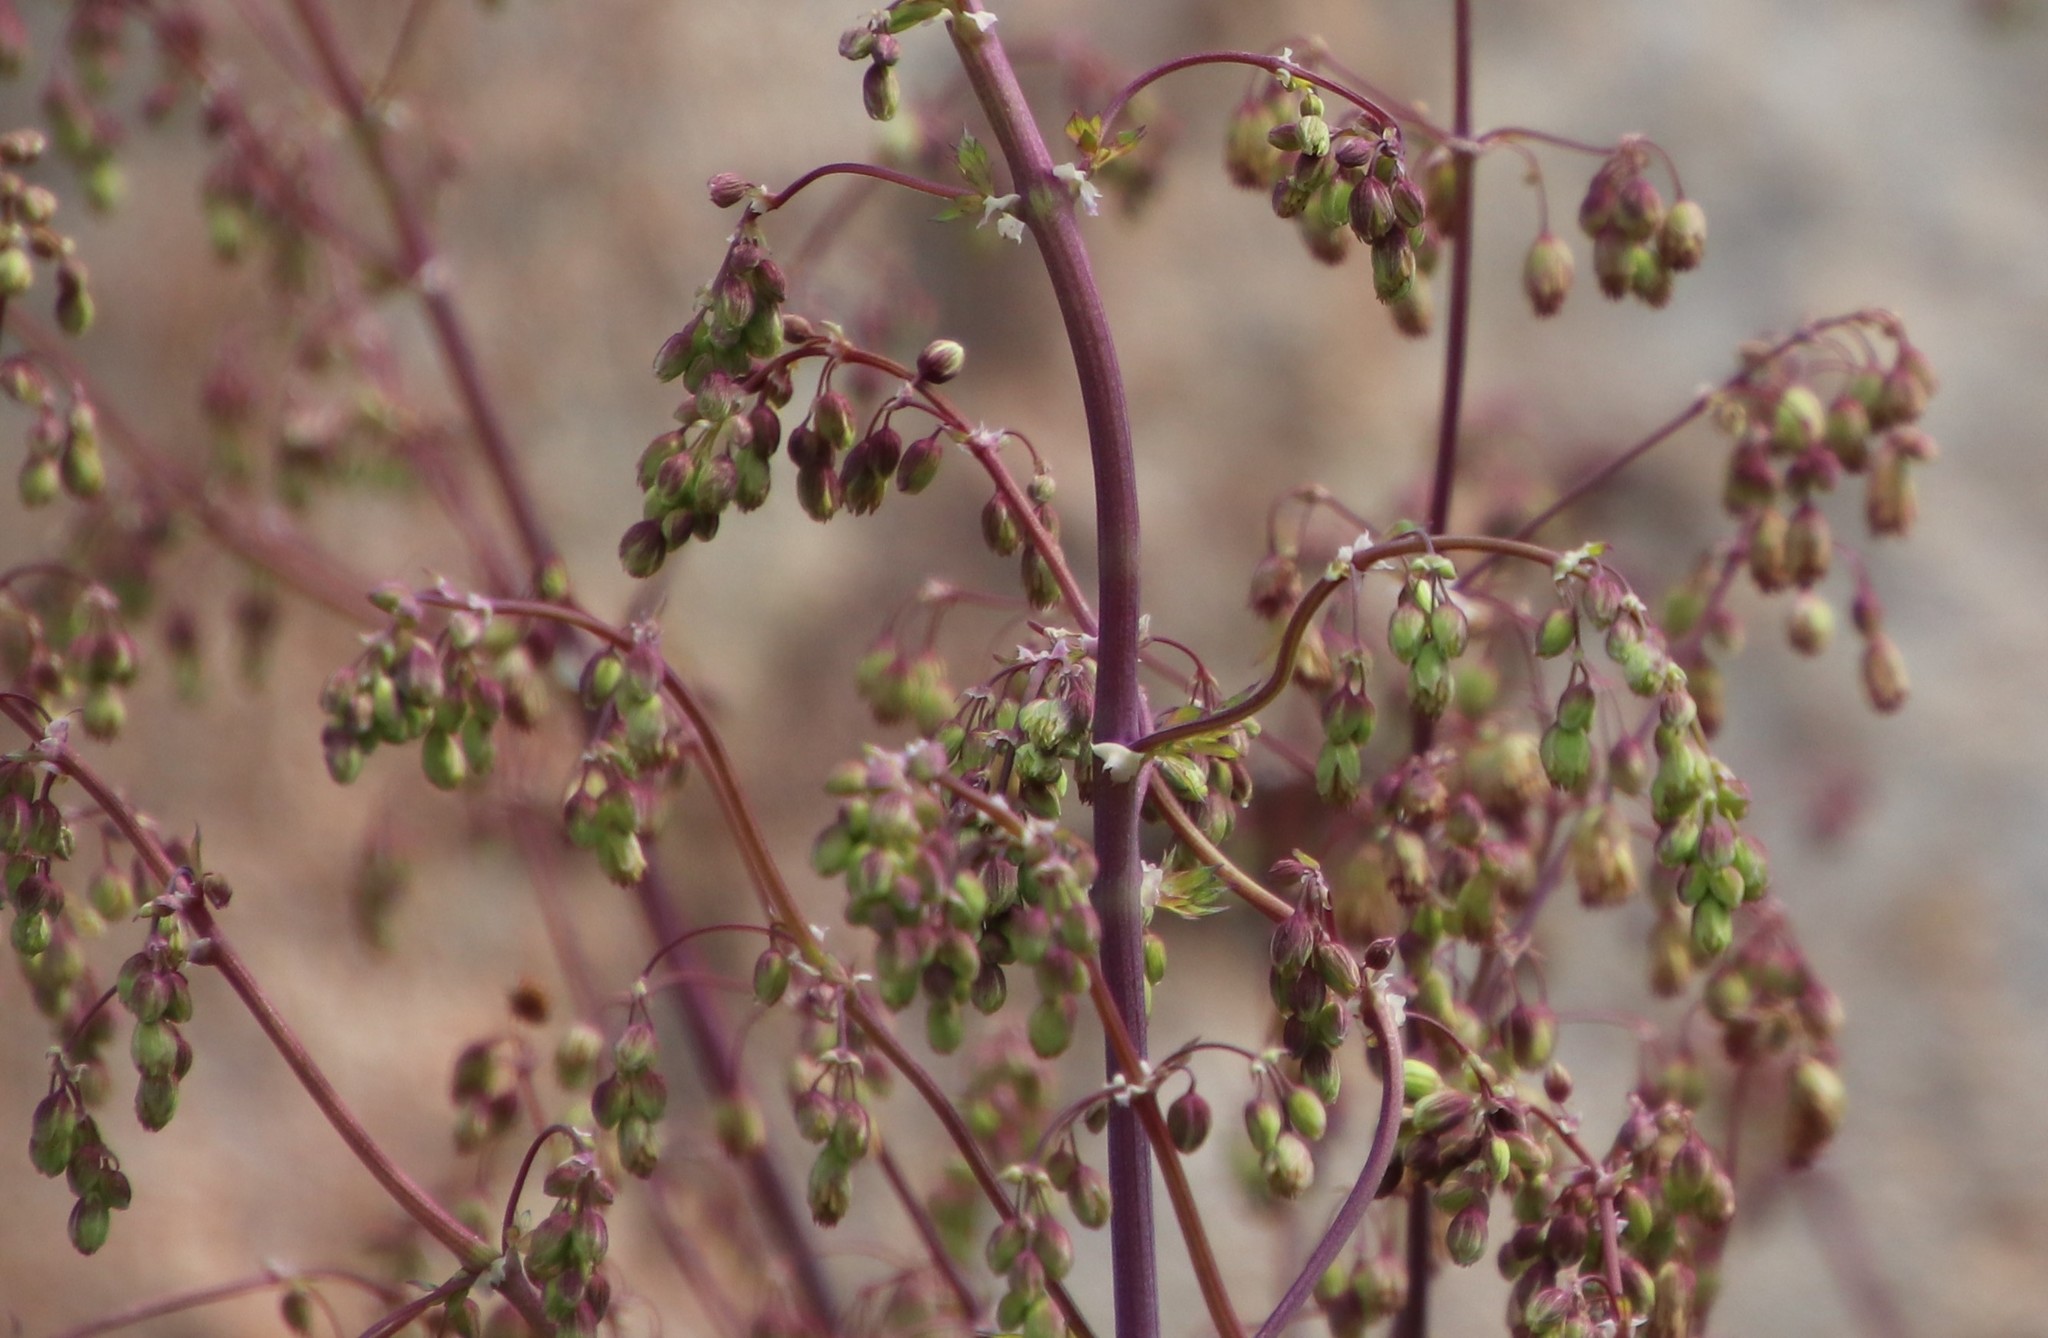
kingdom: Plantae
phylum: Tracheophyta
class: Magnoliopsida
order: Ranunculales
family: Ranunculaceae
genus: Thalictrum
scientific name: Thalictrum fendleri
